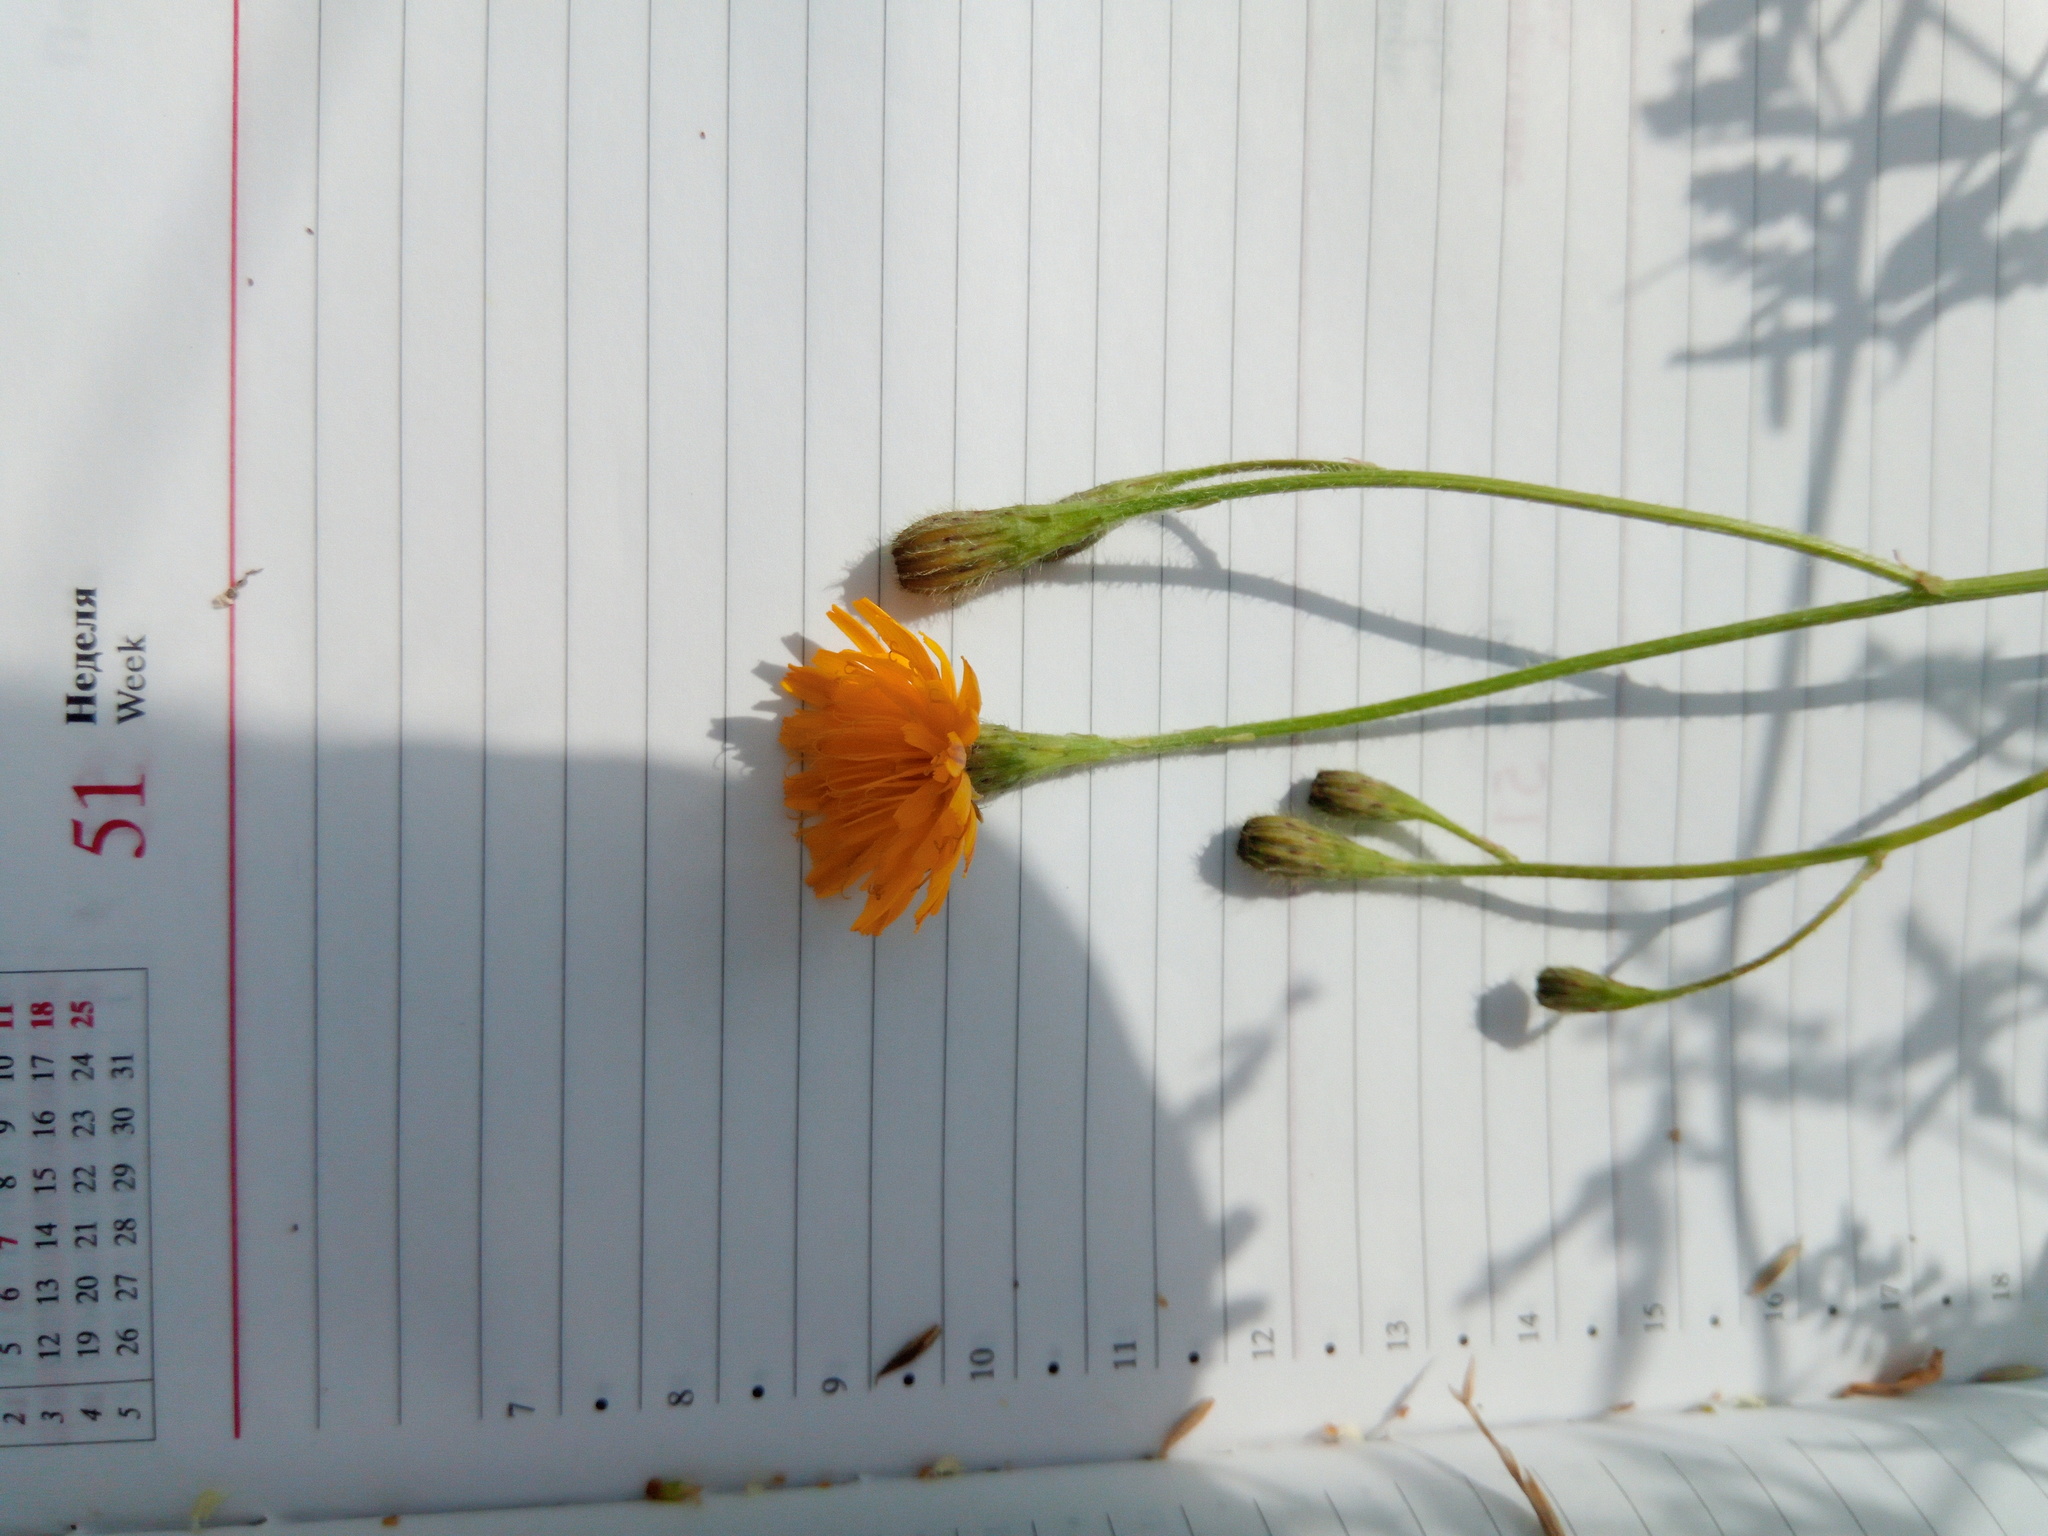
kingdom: Plantae
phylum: Tracheophyta
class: Magnoliopsida
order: Asterales
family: Asteraceae
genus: Scorzoneroides
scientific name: Scorzoneroides autumnalis
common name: Autumn hawkbit
